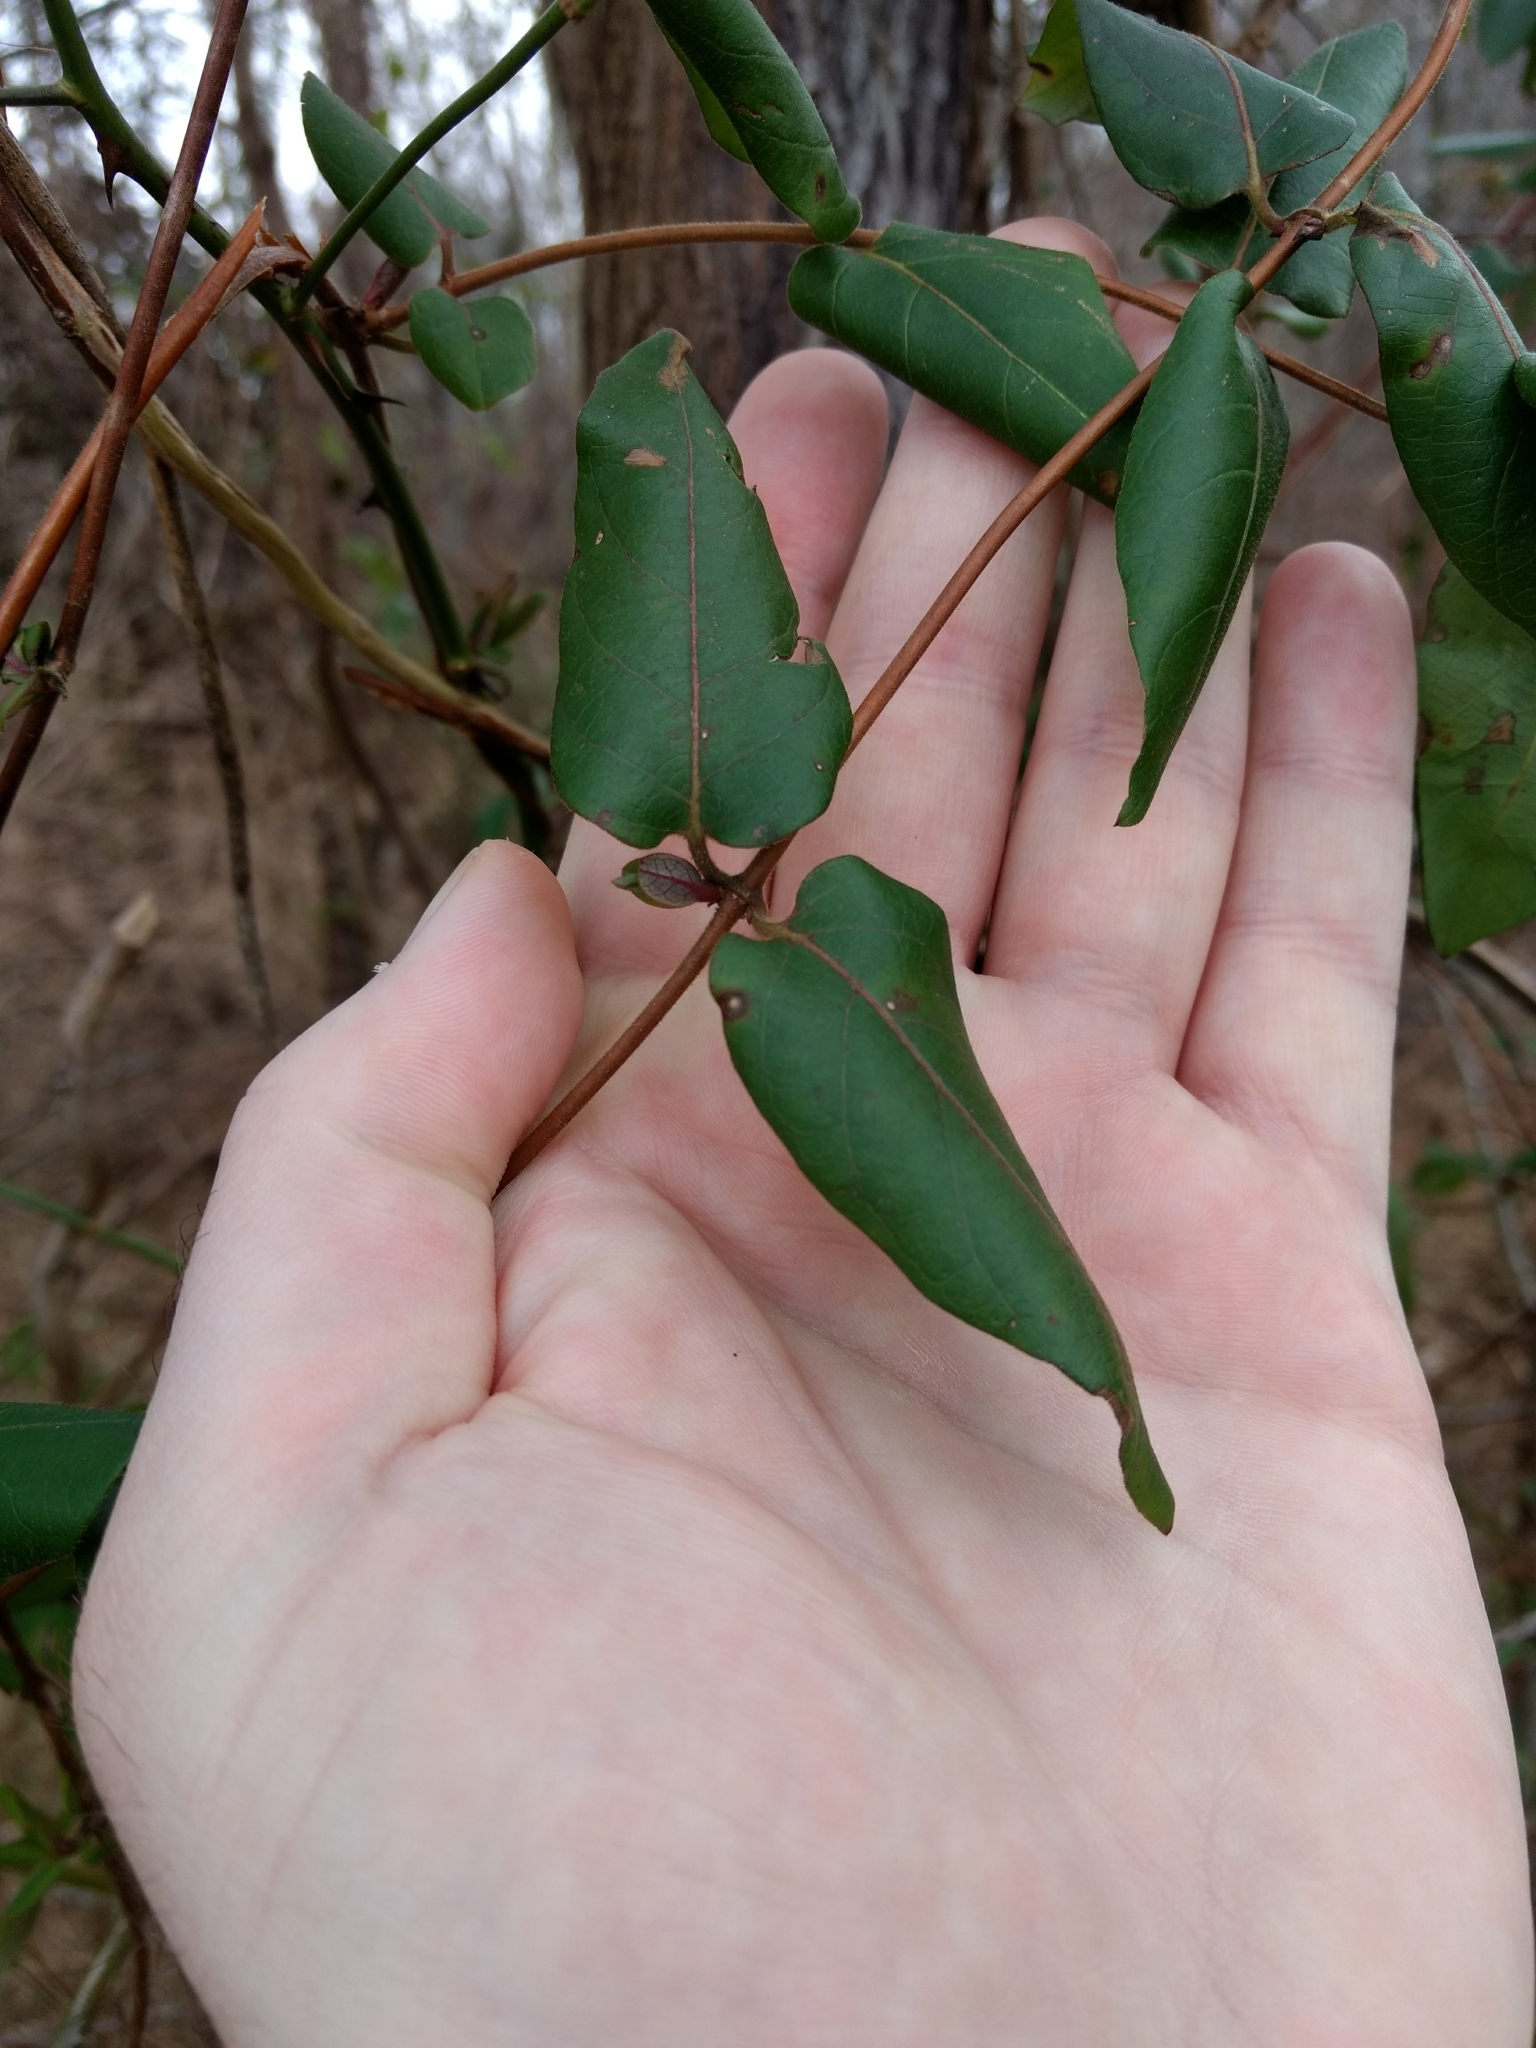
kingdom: Plantae
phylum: Tracheophyta
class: Magnoliopsida
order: Dipsacales
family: Caprifoliaceae
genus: Lonicera
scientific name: Lonicera japonica
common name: Japanese honeysuckle
